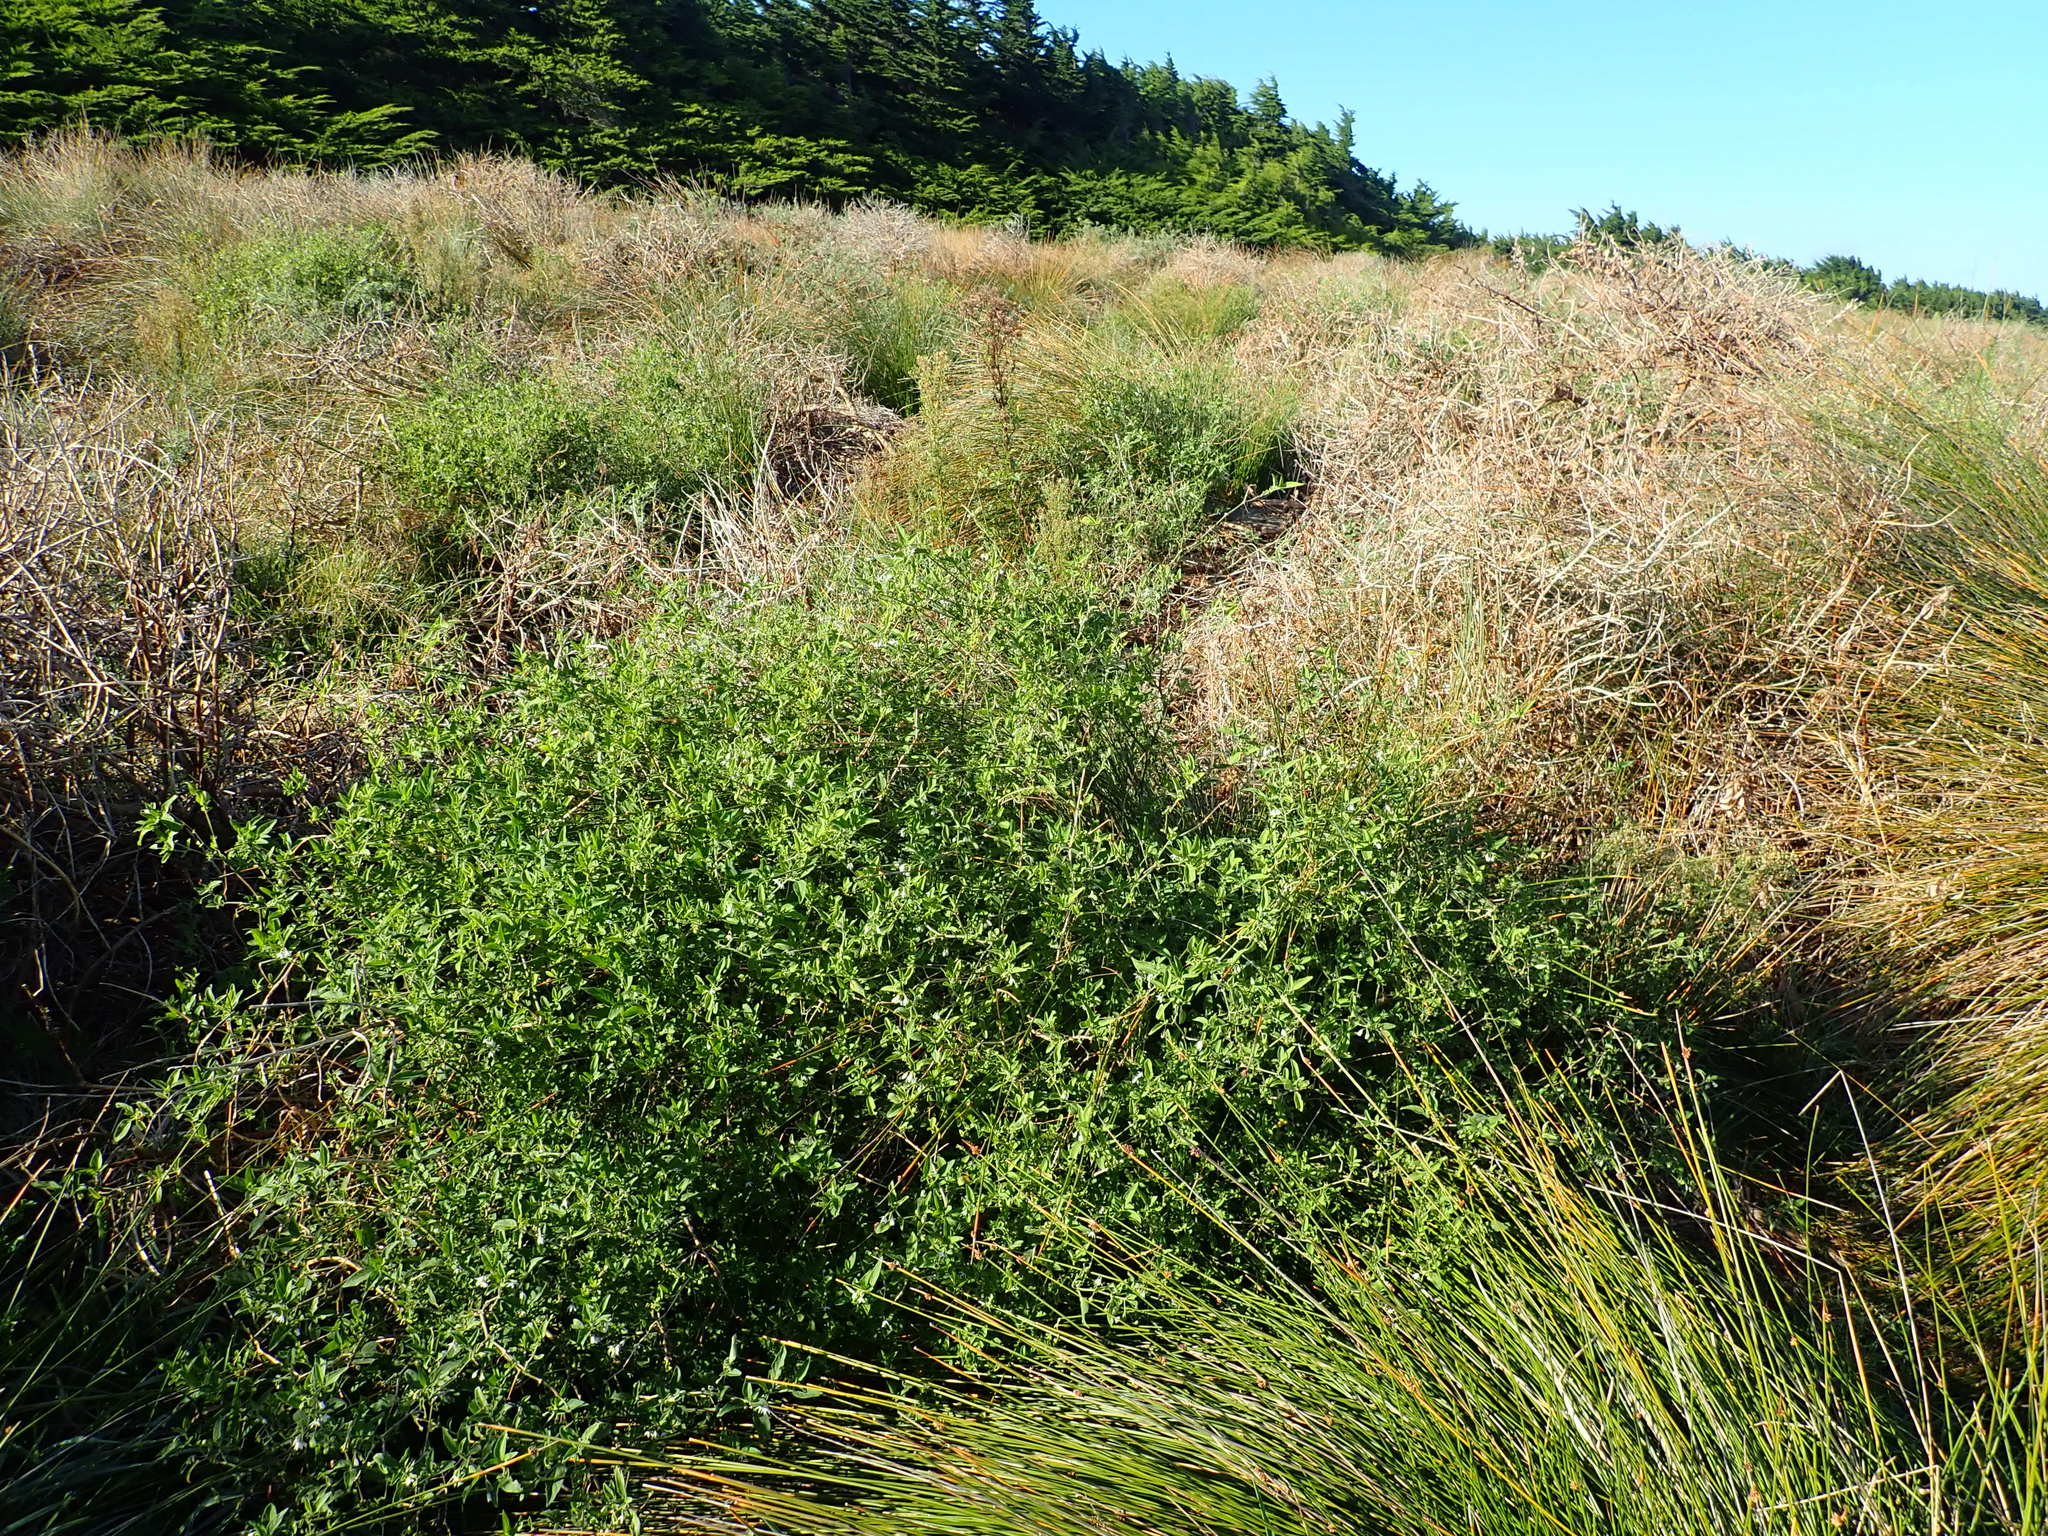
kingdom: Plantae
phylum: Tracheophyta
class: Magnoliopsida
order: Solanales
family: Solanaceae
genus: Solanum
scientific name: Solanum chenopodioides
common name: Tall nightshade
